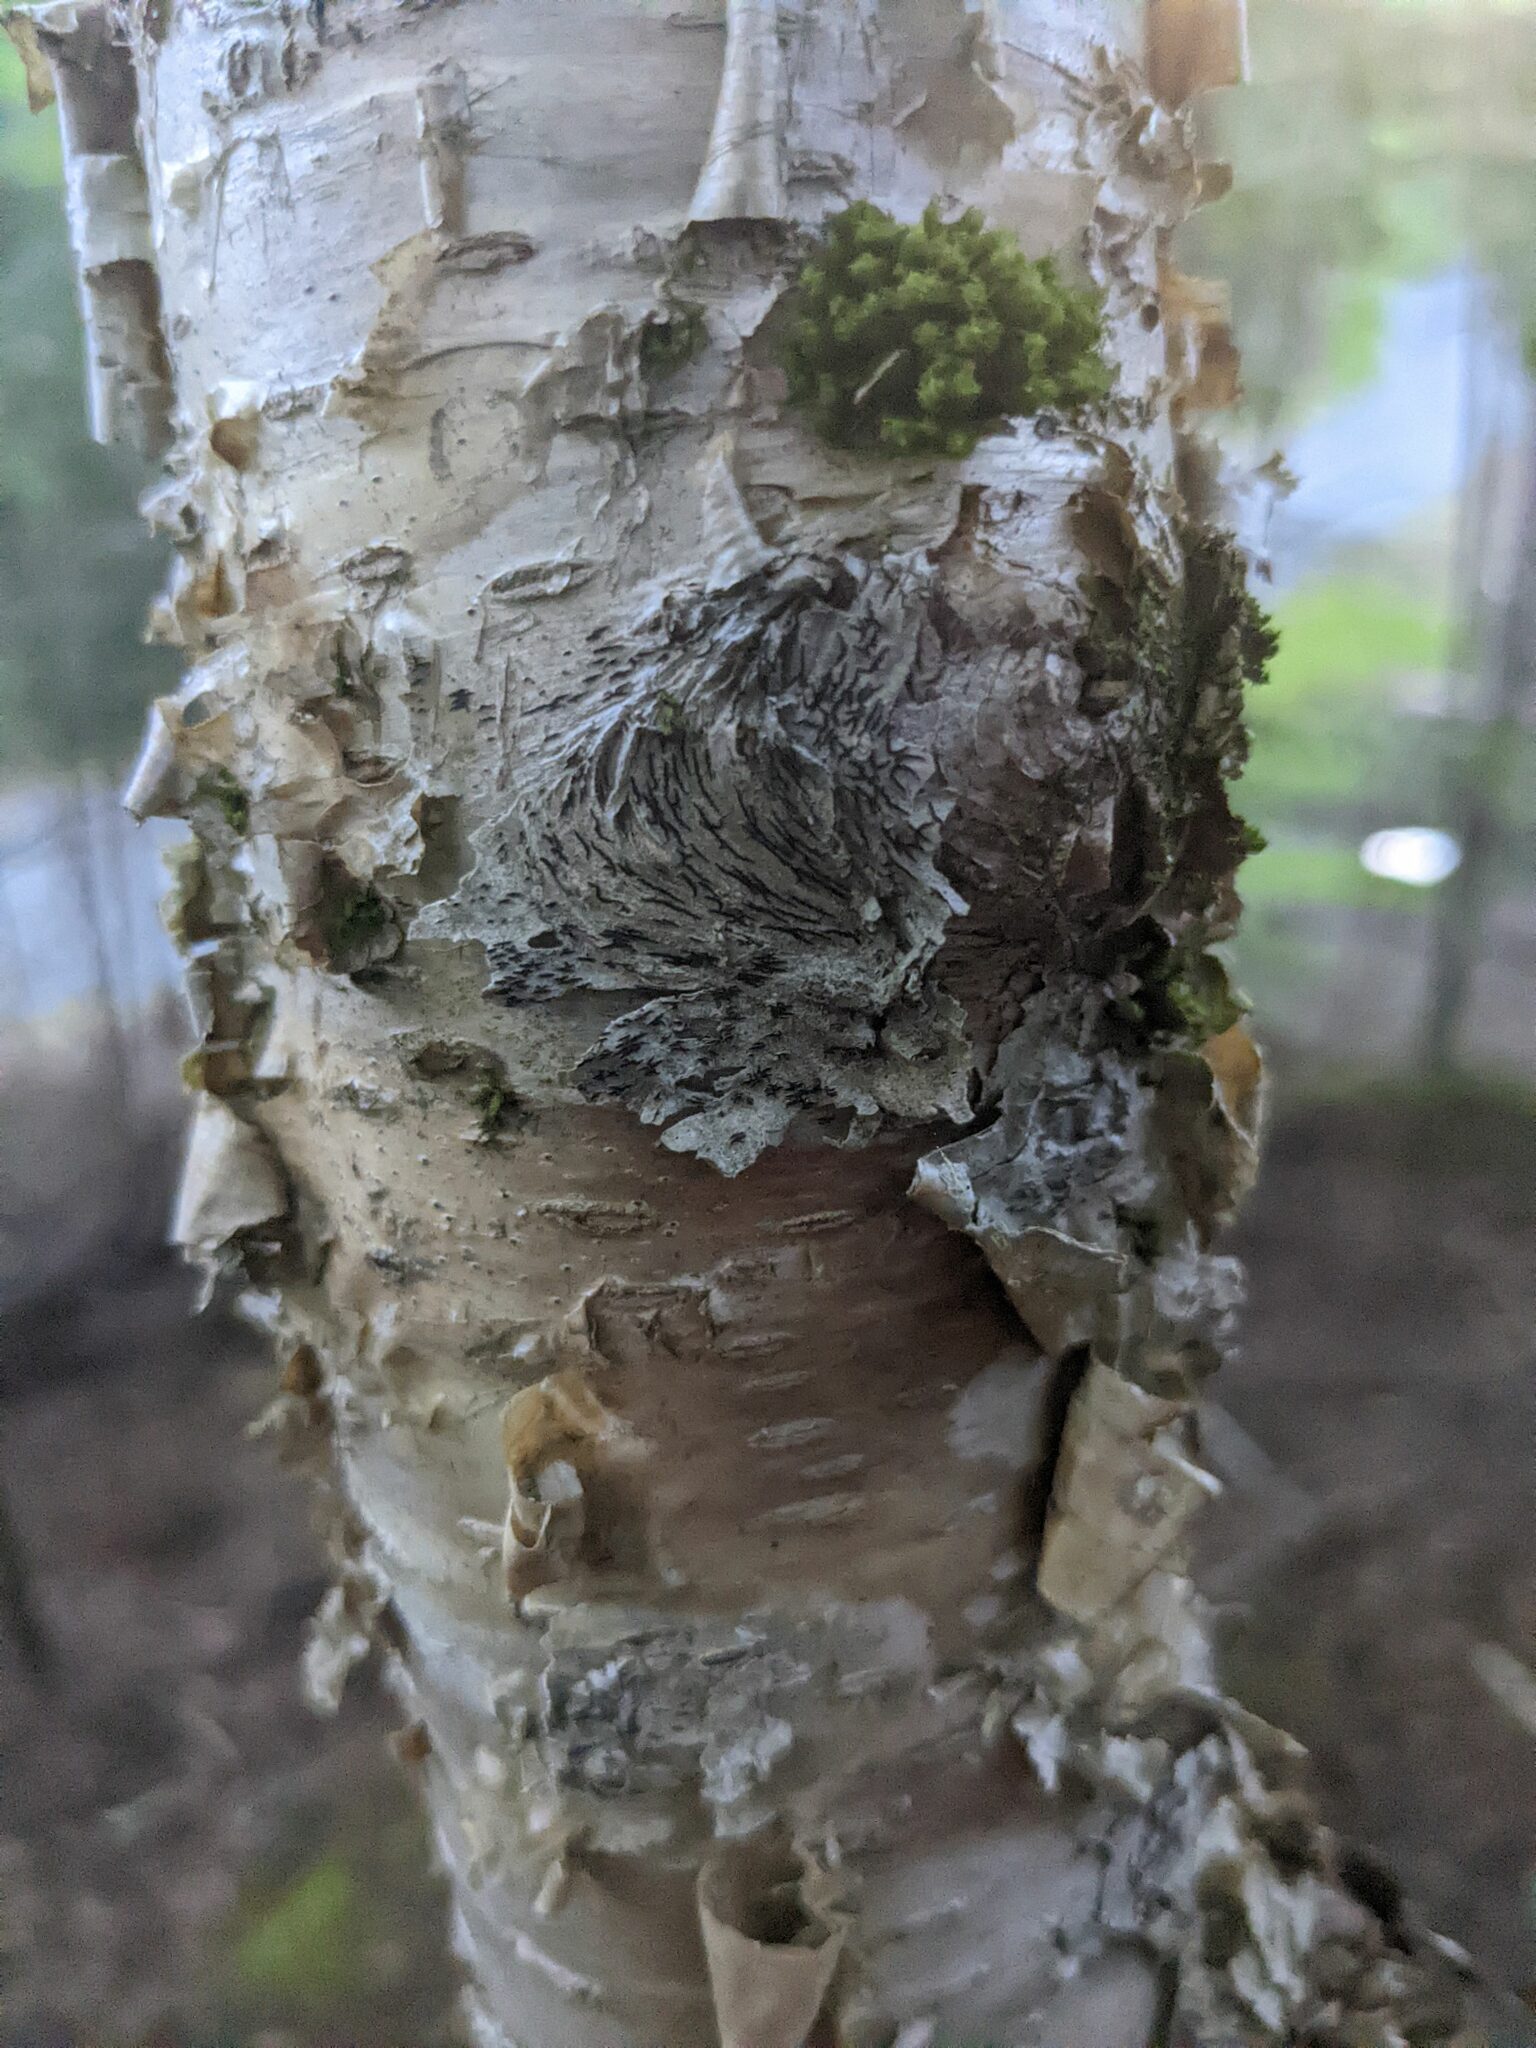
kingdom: Fungi
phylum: Ascomycota
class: Lecanoromycetes
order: Ostropales
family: Graphidaceae
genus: Graphis
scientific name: Graphis scripta
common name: Script lichen
